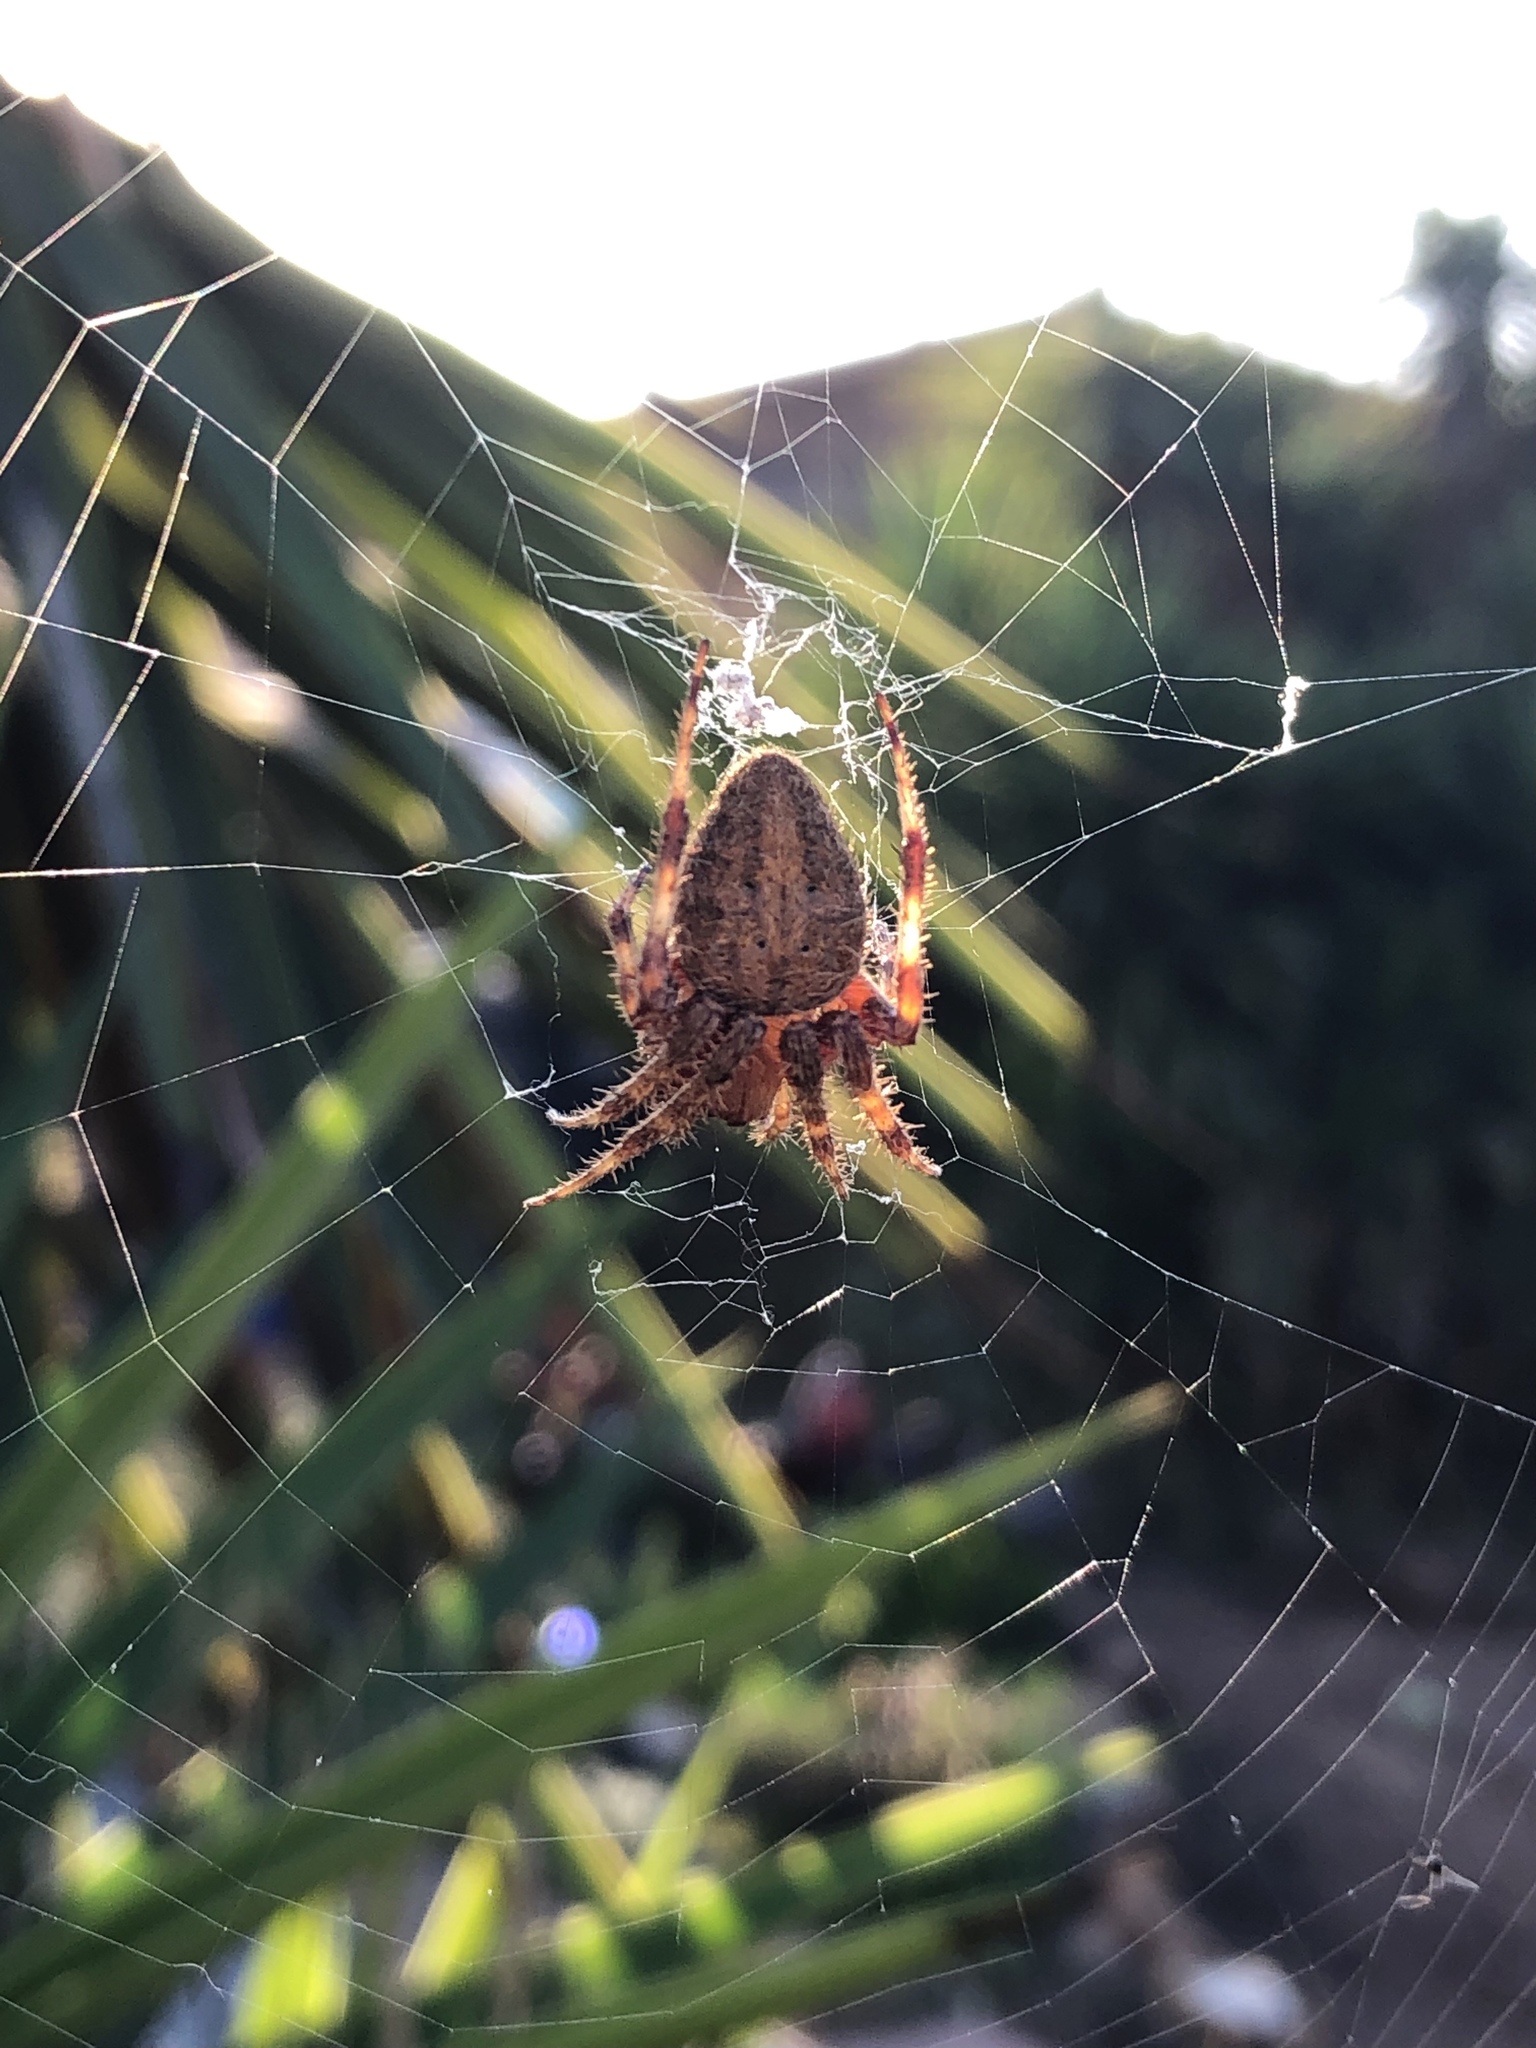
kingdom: Animalia
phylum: Arthropoda
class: Arachnida
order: Araneae
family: Araneidae
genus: Neoscona
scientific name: Neoscona crucifera
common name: Spotted orbweaver
